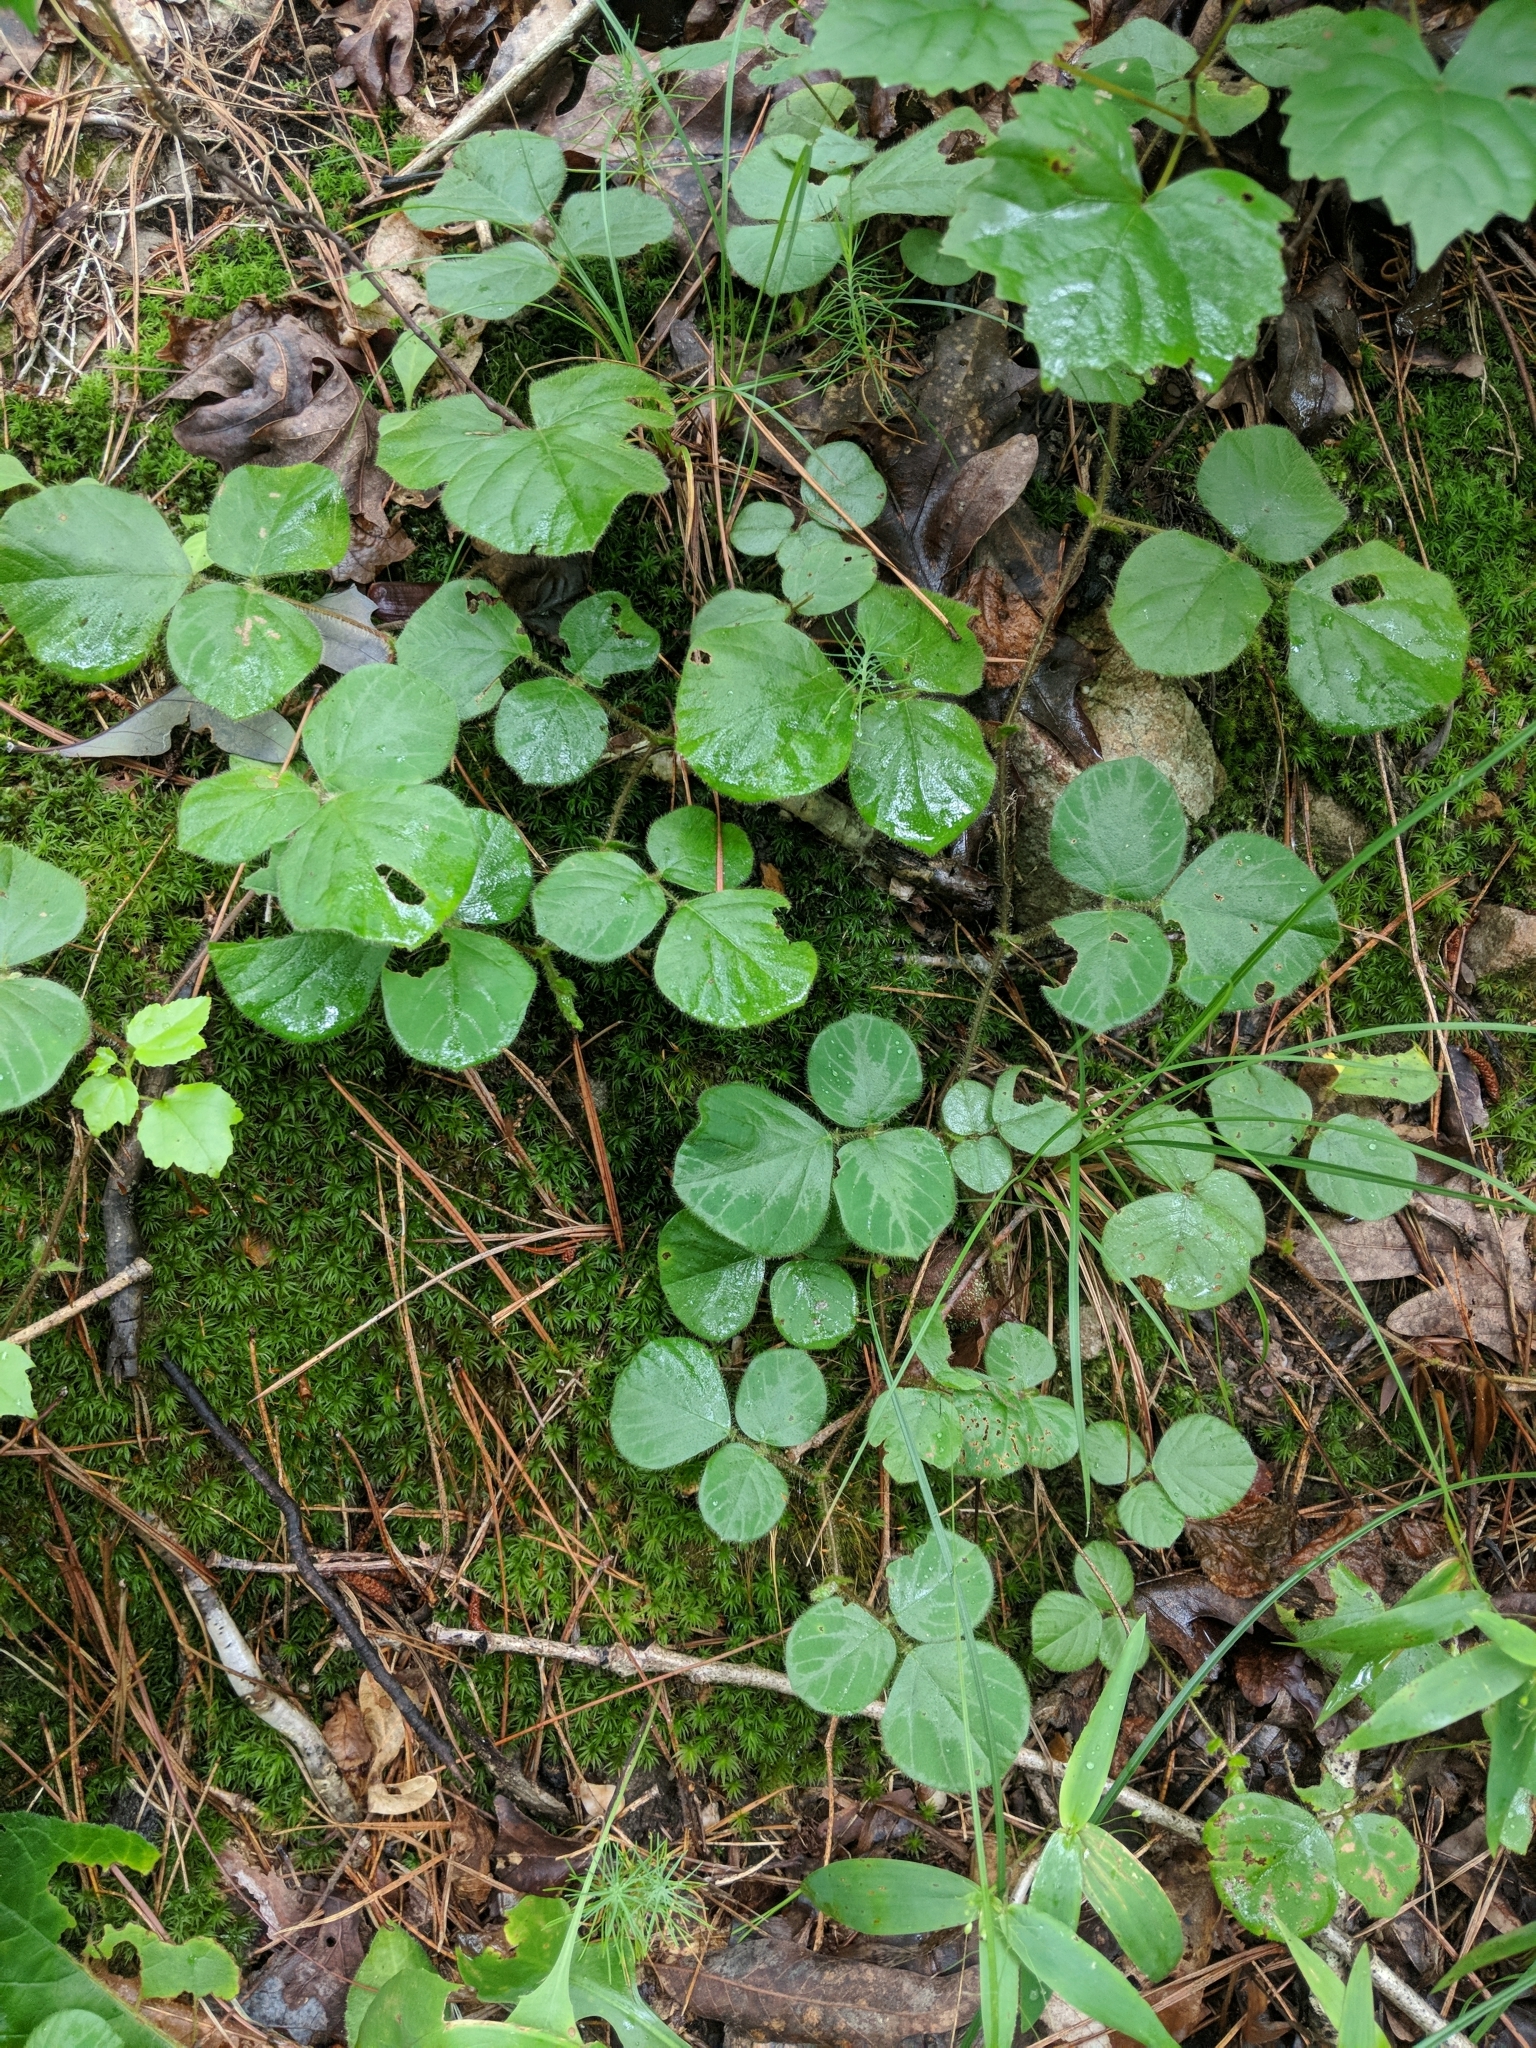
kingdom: Plantae
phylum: Tracheophyta
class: Magnoliopsida
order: Fabales
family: Fabaceae
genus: Desmodium
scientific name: Desmodium rotundifolium
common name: Dollarleaf
